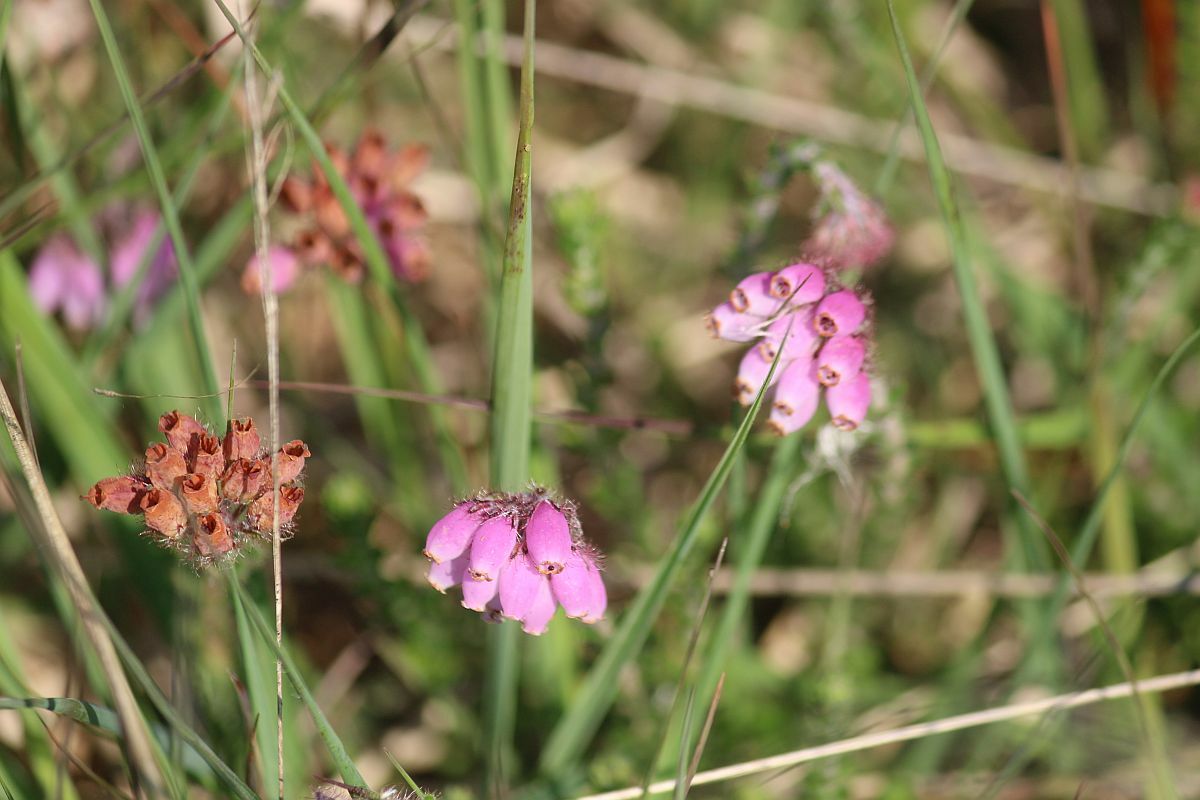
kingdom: Plantae
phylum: Tracheophyta
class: Magnoliopsida
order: Ericales
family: Ericaceae
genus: Erica
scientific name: Erica tetralix
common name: Cross-leaved heath
